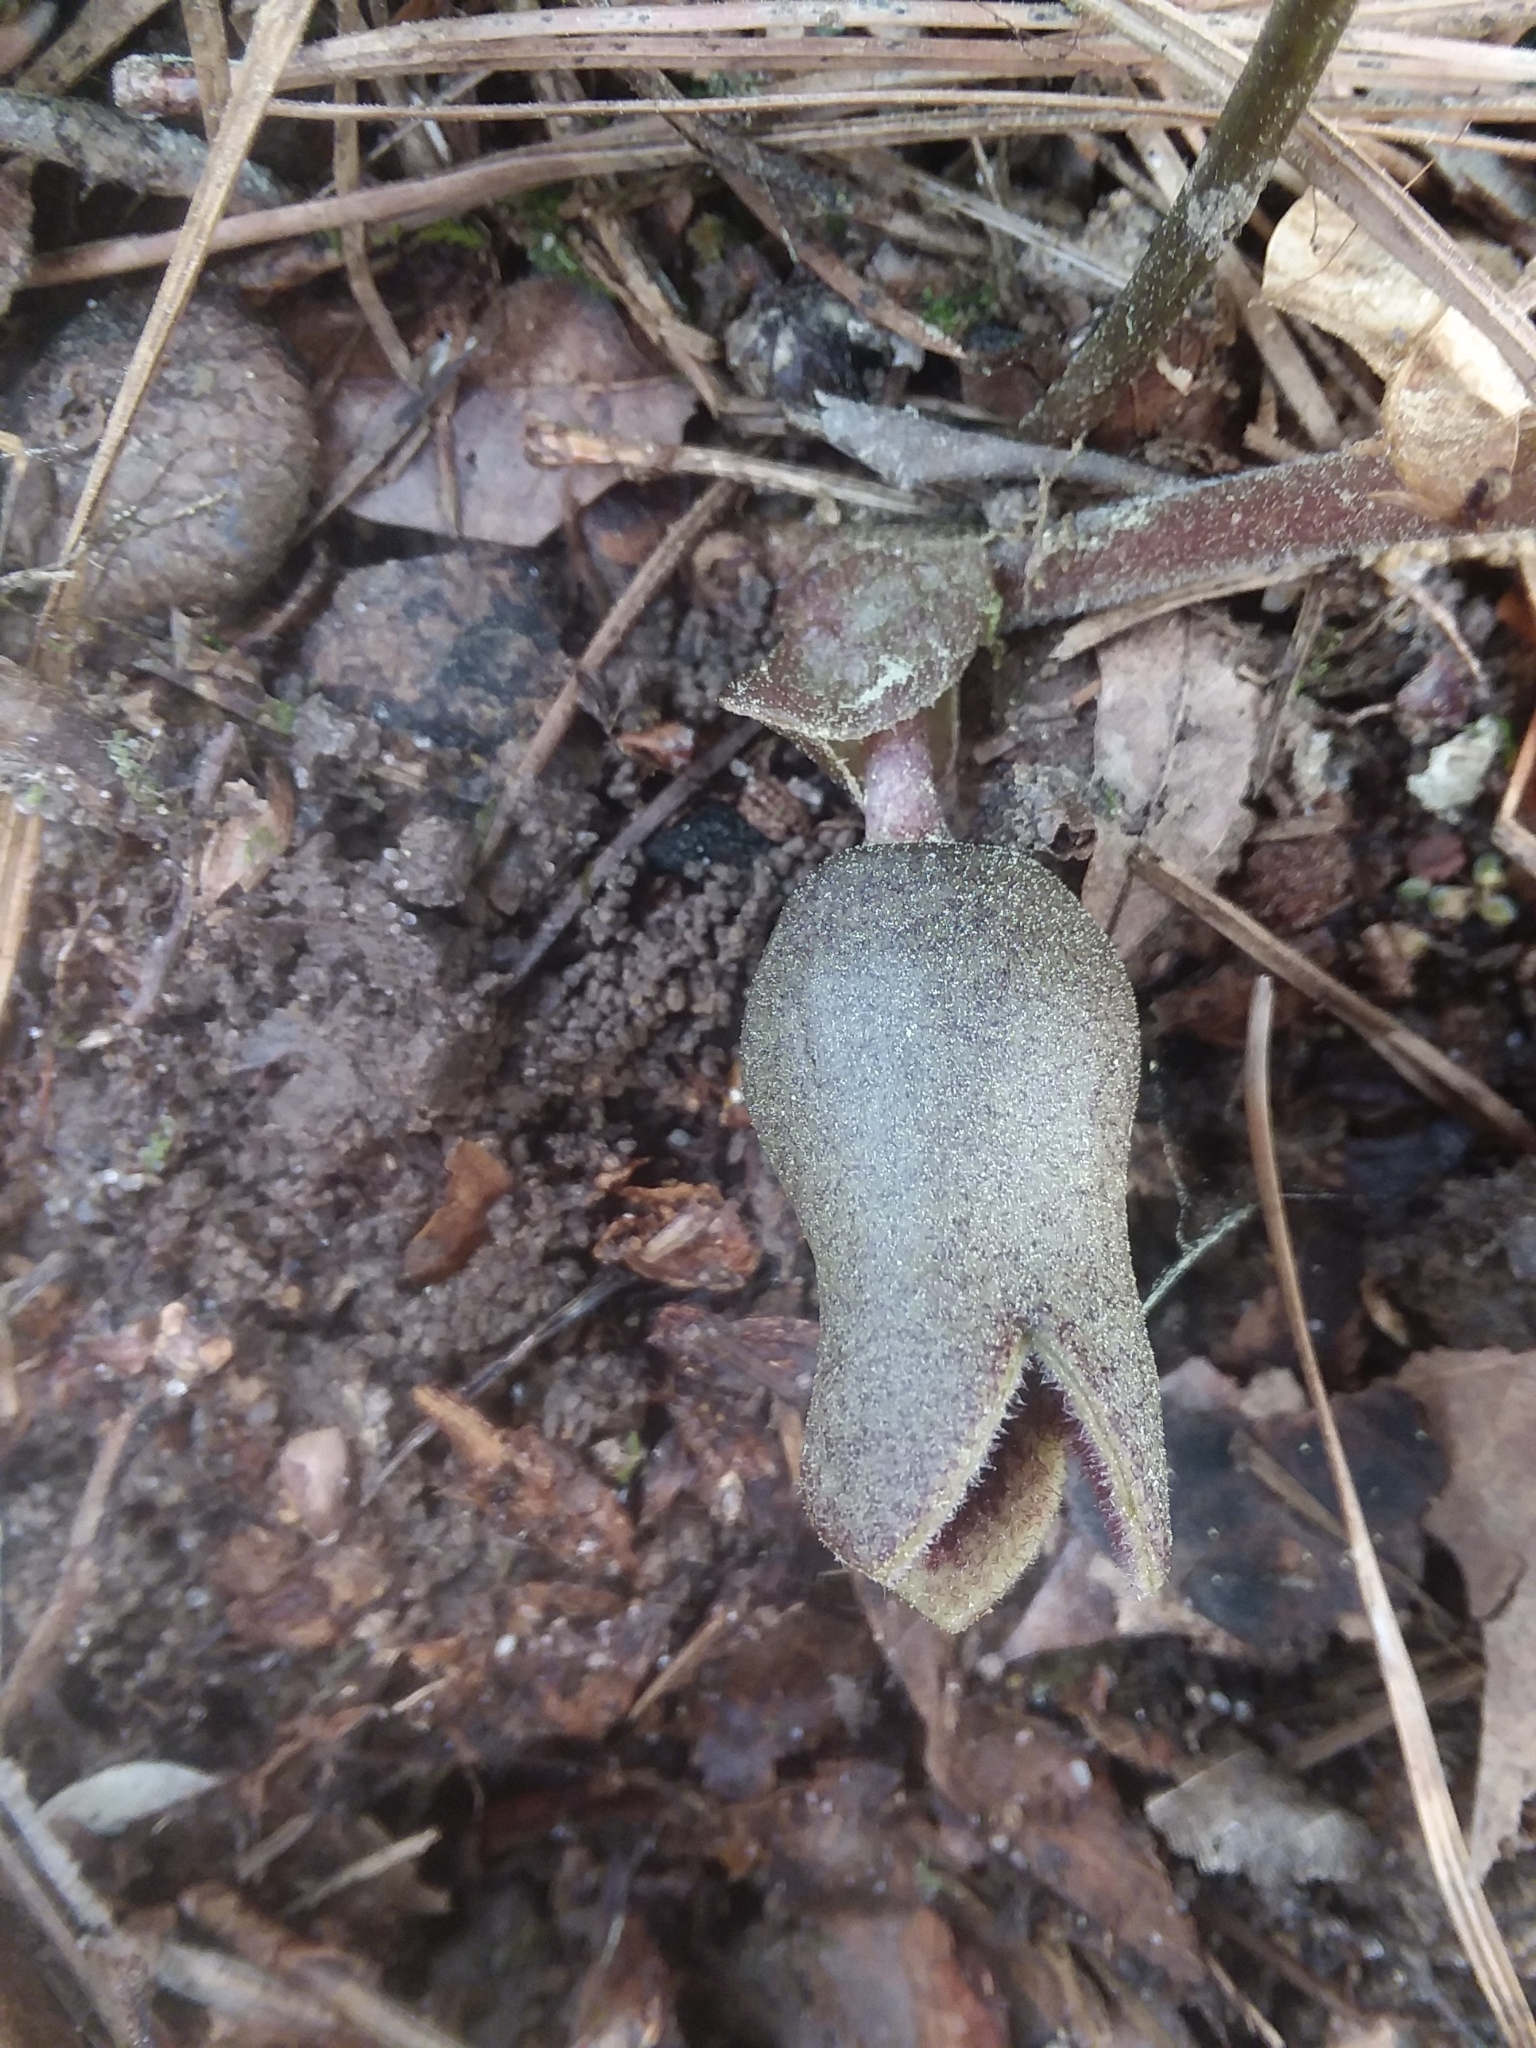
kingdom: Plantae
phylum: Tracheophyta
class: Magnoliopsida
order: Piperales
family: Aristolochiaceae
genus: Hexastylis
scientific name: Hexastylis arifolia
